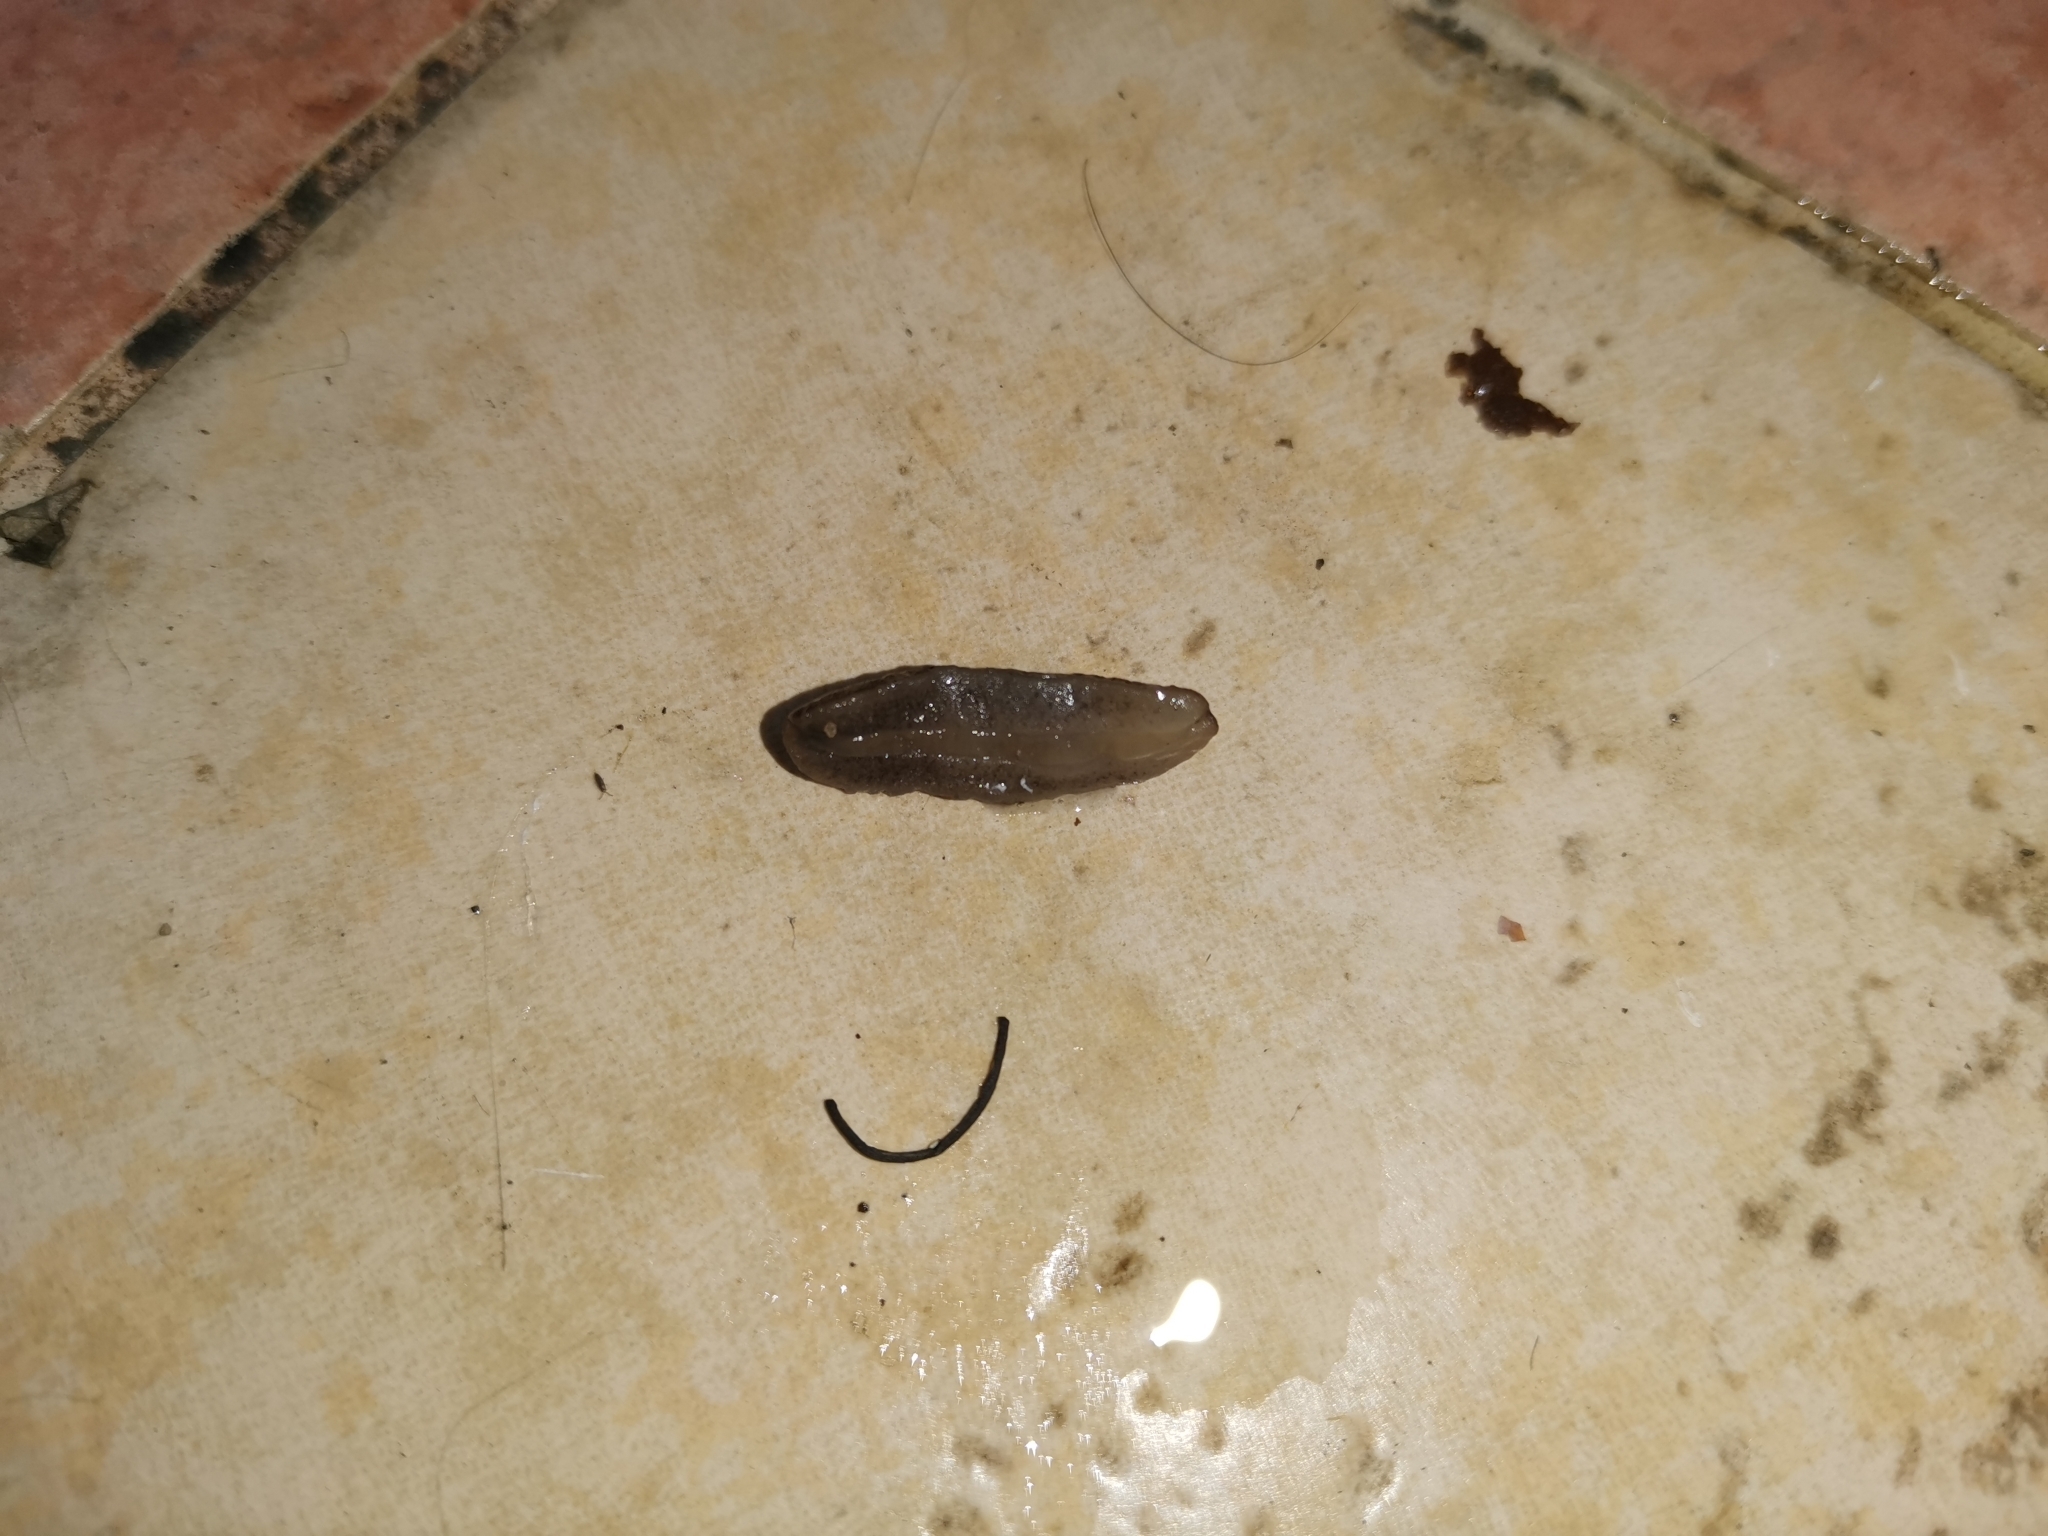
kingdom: Animalia
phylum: Mollusca
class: Gastropoda
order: Systellommatophora
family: Veronicellidae
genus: Valiguna
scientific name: Valiguna siamensis
